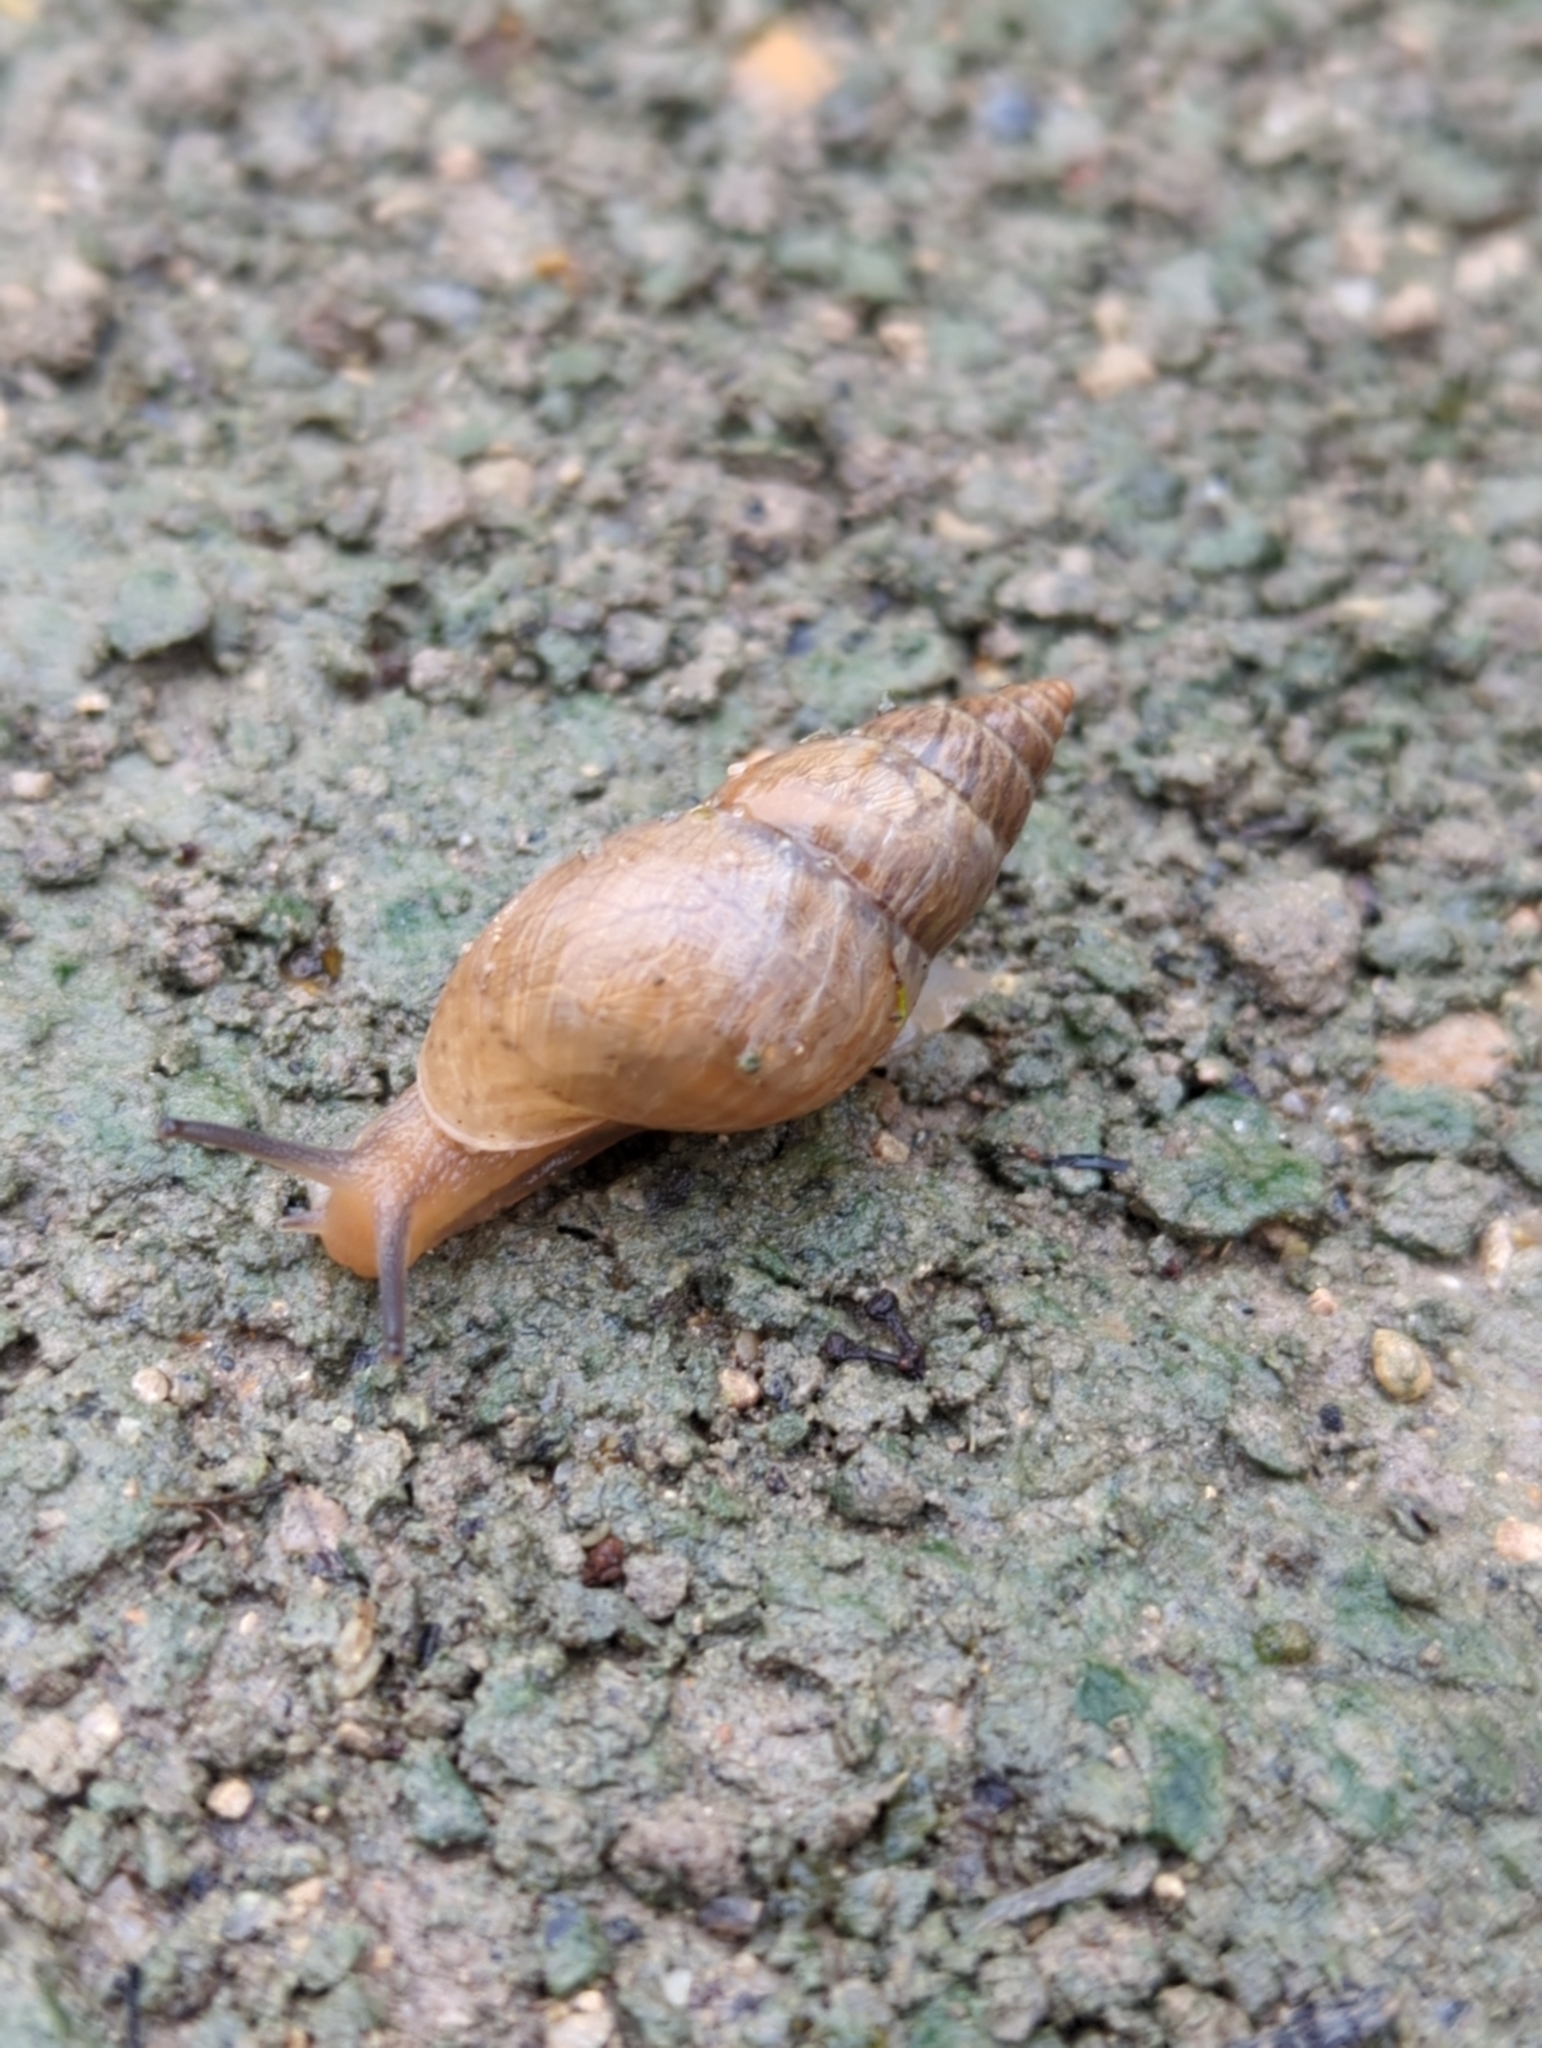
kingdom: Animalia
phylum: Mollusca
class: Gastropoda
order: Stylommatophora
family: Bulimulidae
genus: Bulimulus
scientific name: Bulimulus bonariensis
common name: Snail
